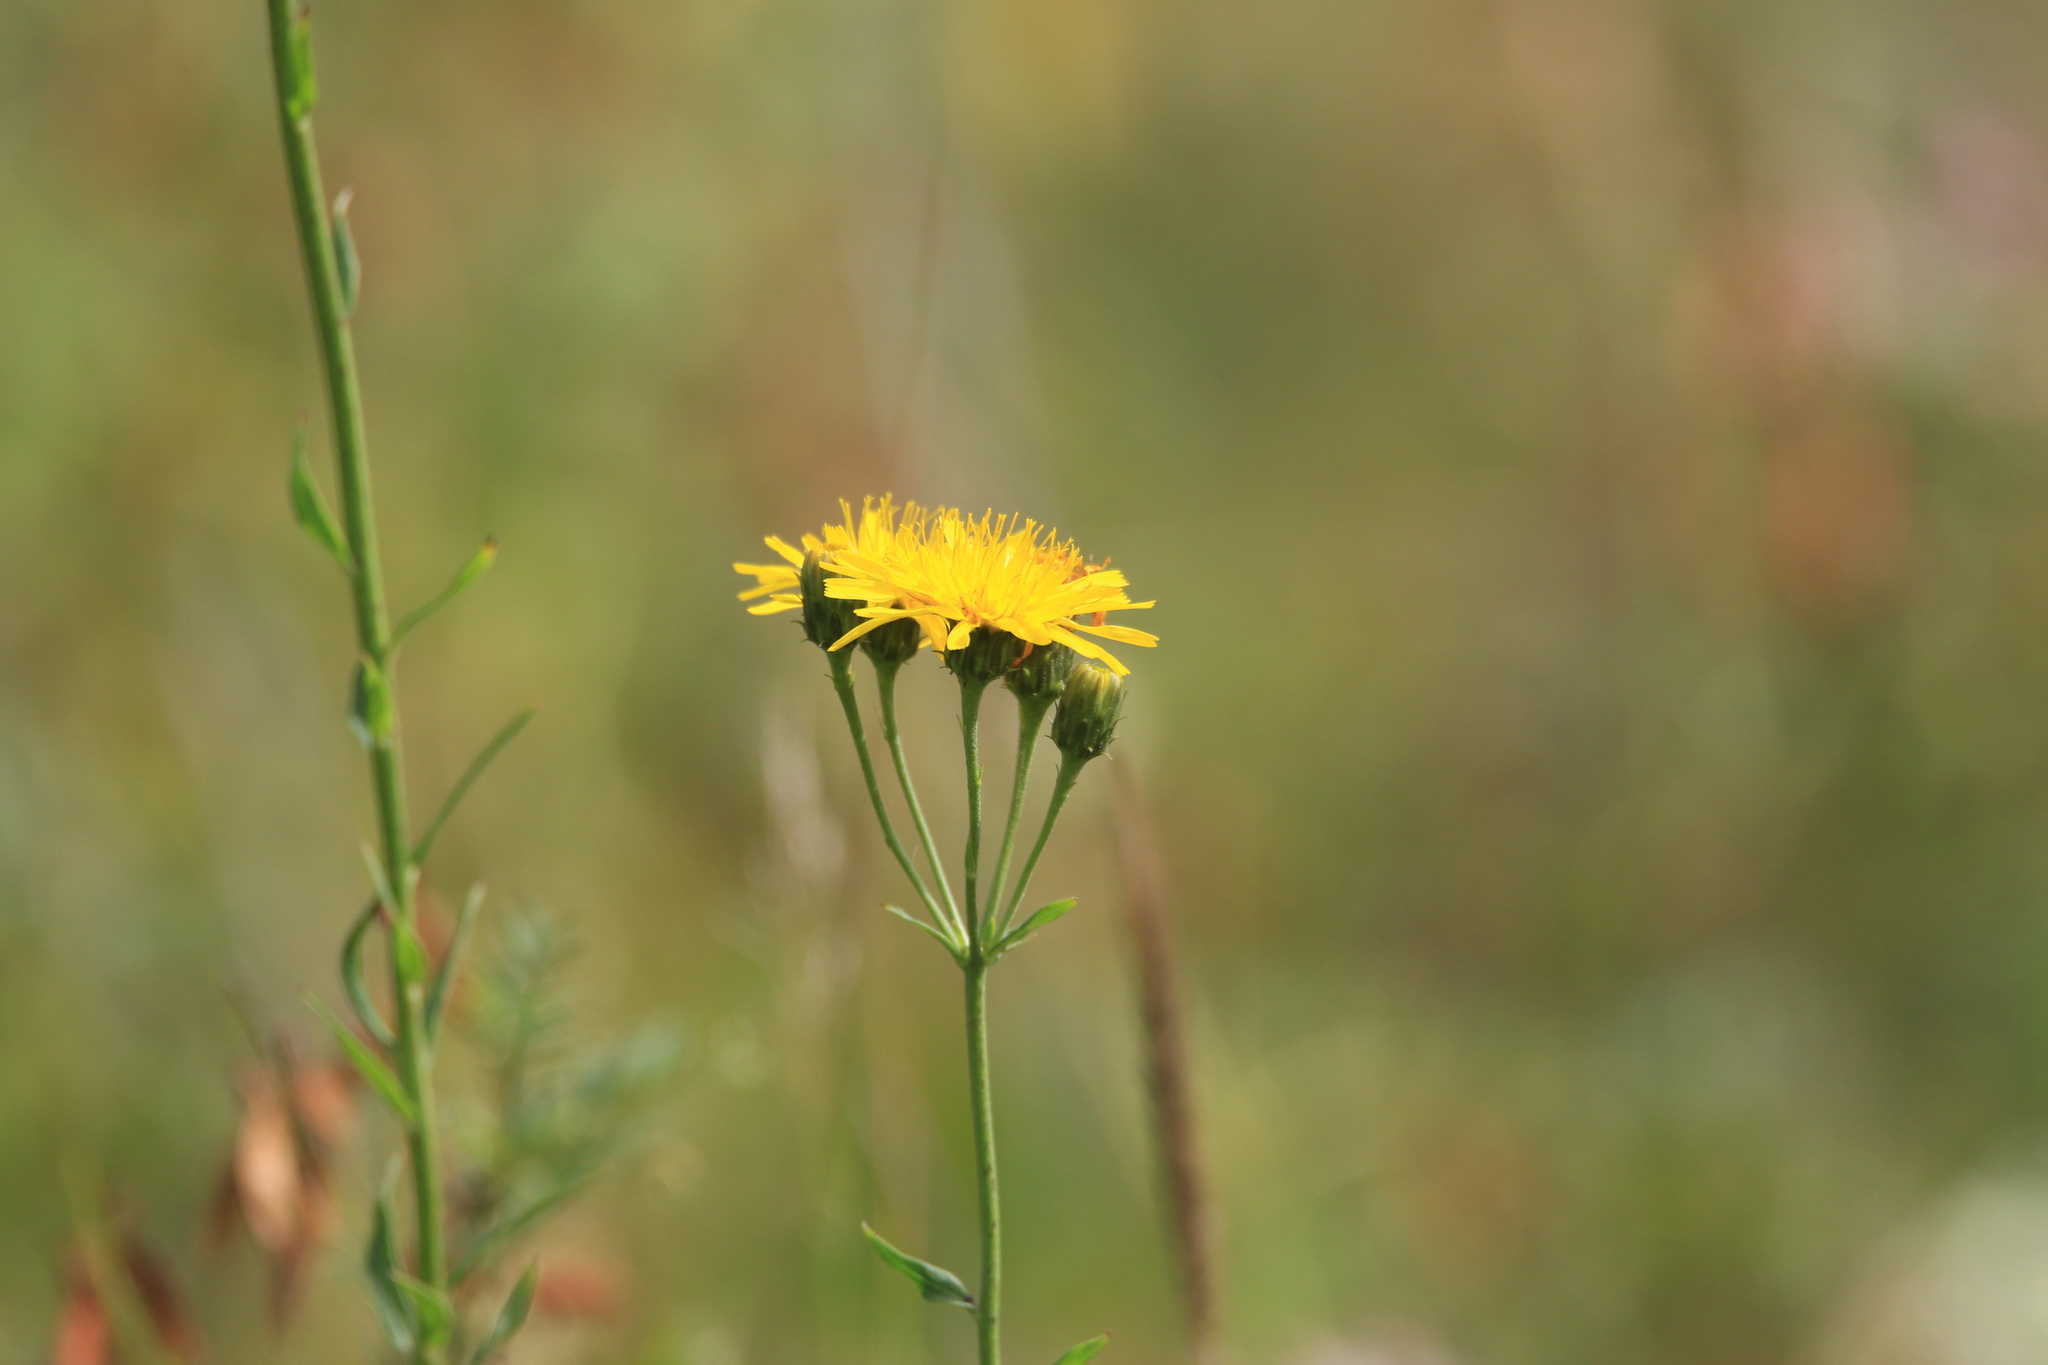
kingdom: Plantae
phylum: Tracheophyta
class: Magnoliopsida
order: Asterales
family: Asteraceae
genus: Hieracium
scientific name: Hieracium umbellatum
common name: Northern hawkweed
